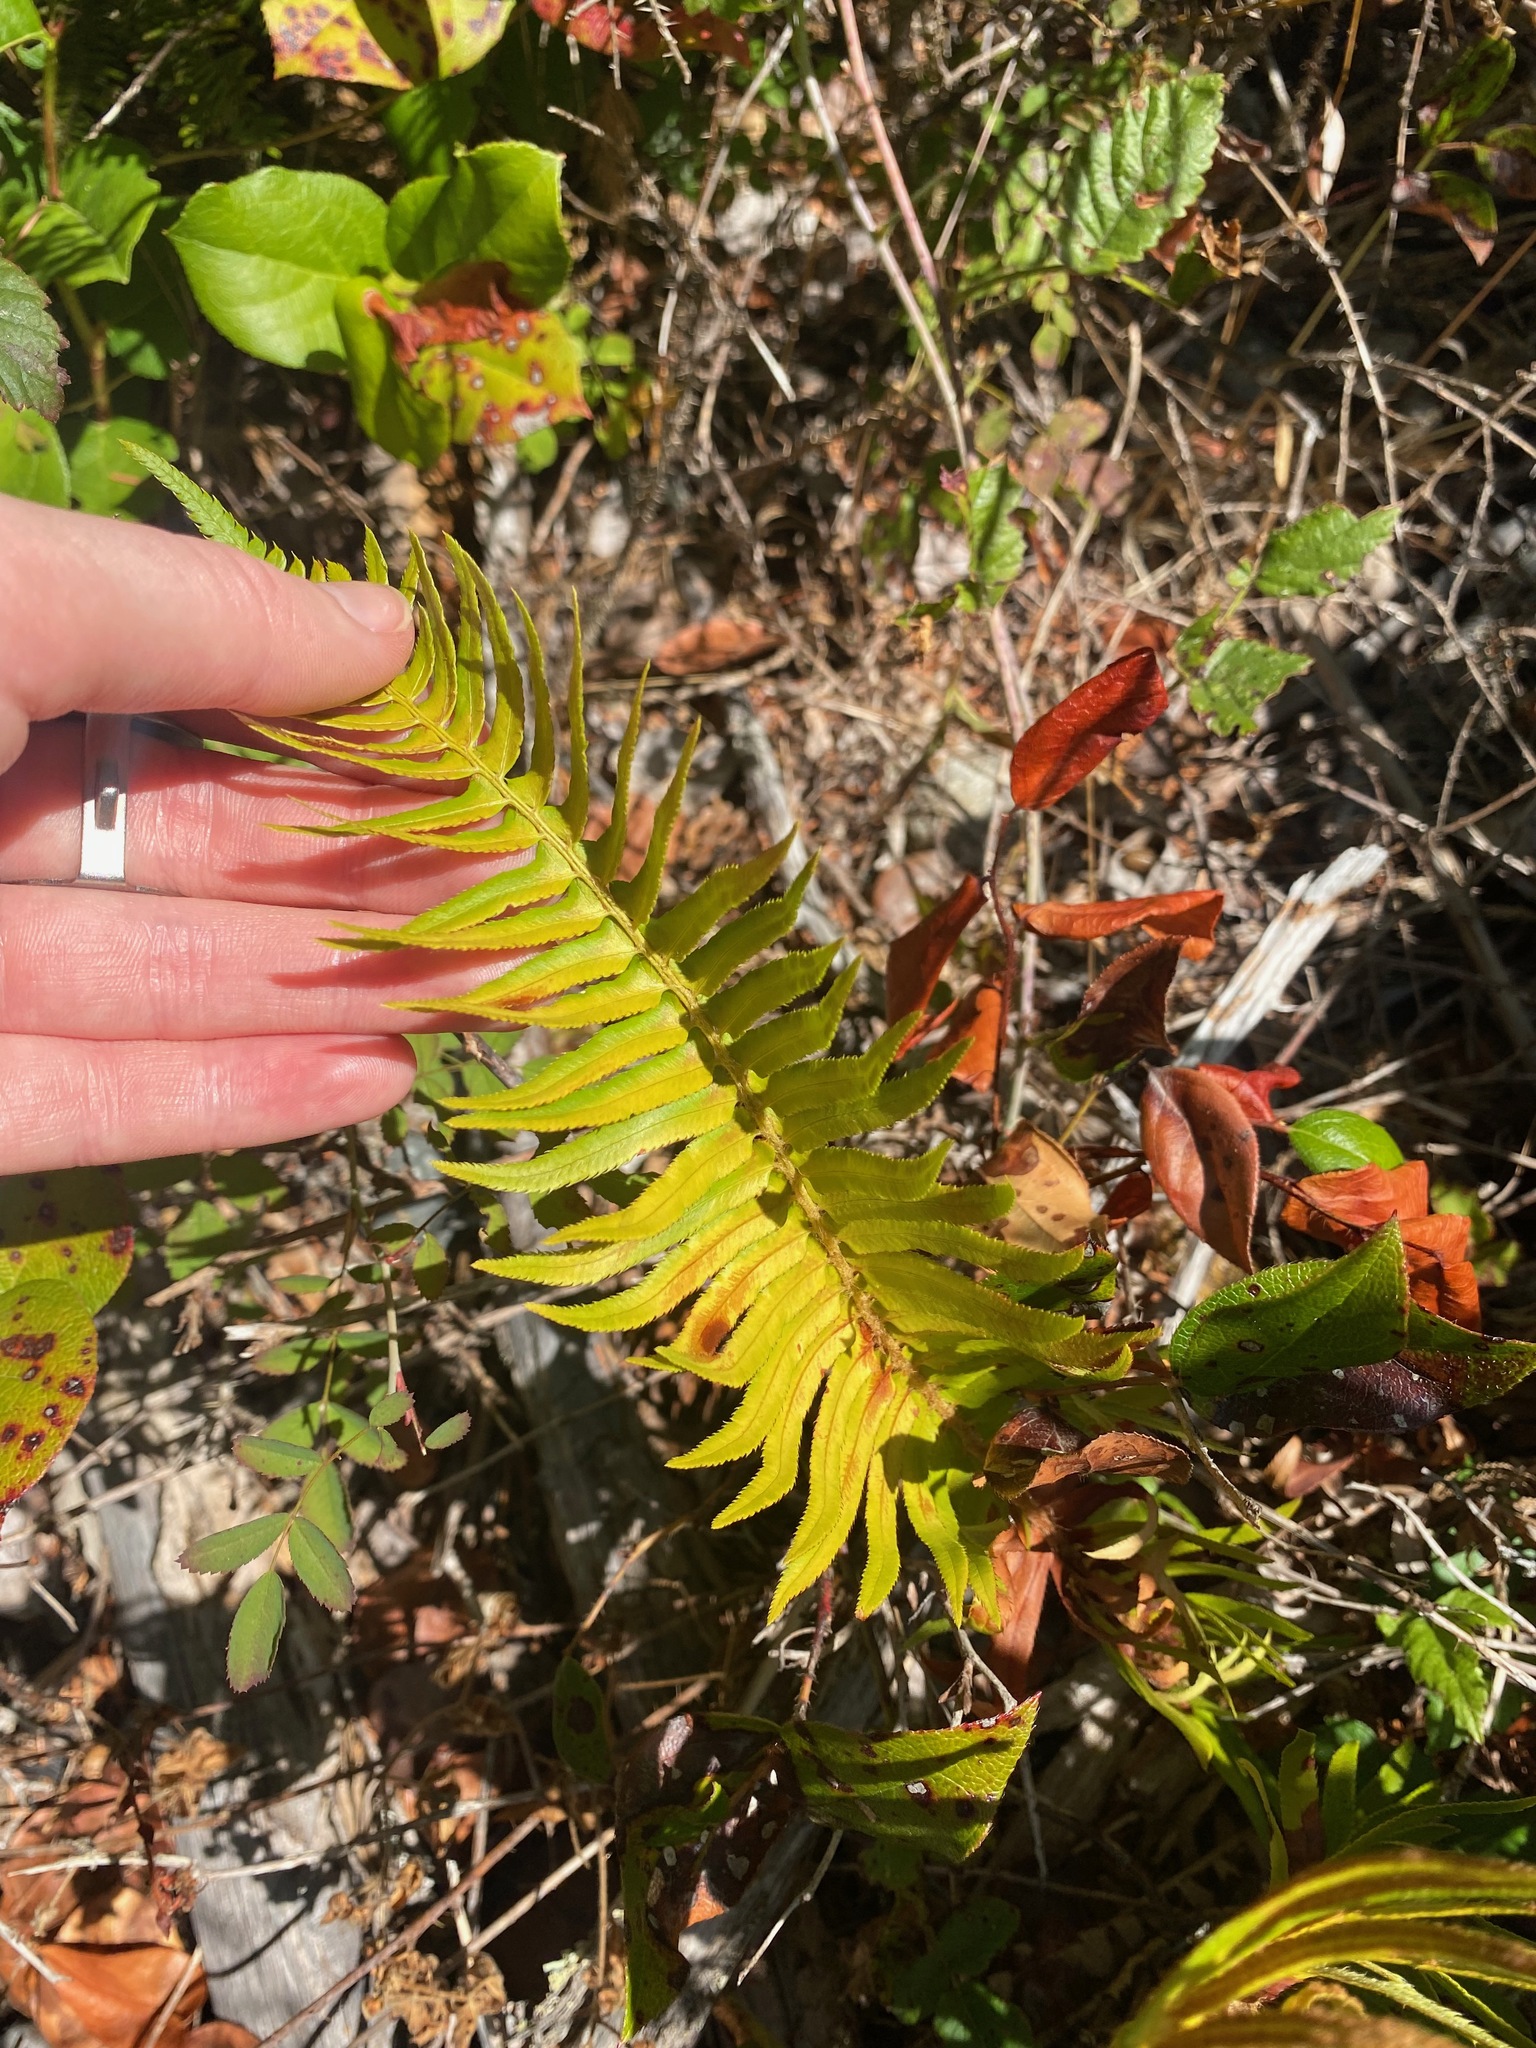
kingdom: Plantae
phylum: Tracheophyta
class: Polypodiopsida
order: Polypodiales
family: Dryopteridaceae
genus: Polystichum
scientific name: Polystichum munitum
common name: Western sword-fern
